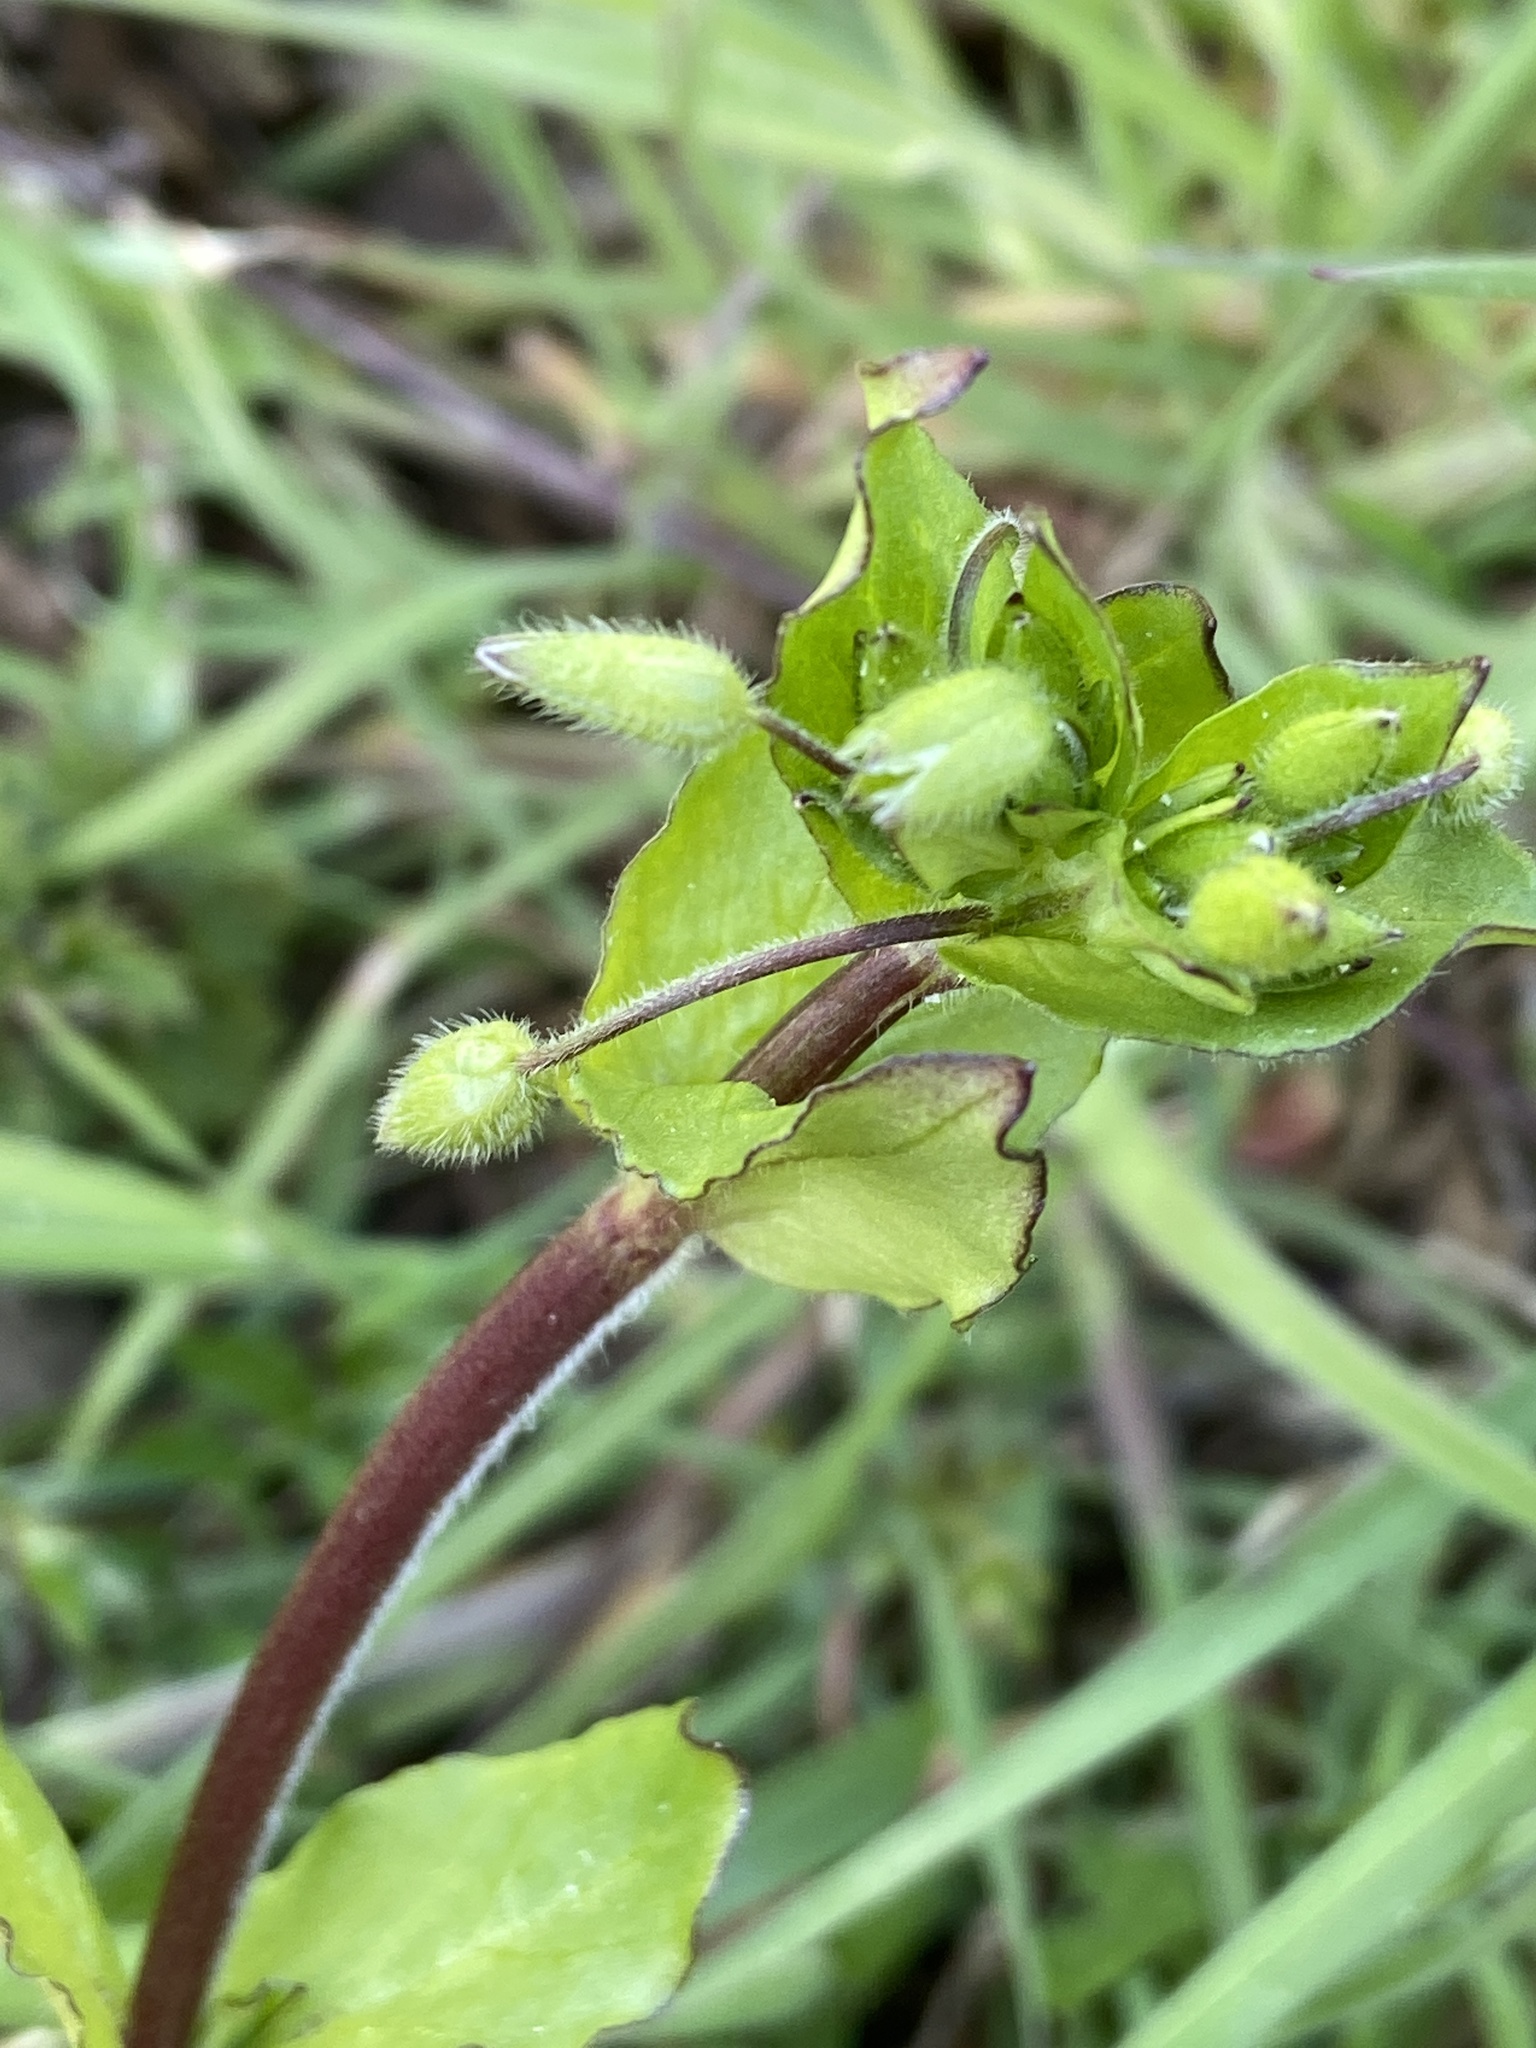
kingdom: Plantae
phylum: Tracheophyta
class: Magnoliopsida
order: Caryophyllales
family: Caryophyllaceae
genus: Stellaria
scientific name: Stellaria media
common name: Common chickweed
